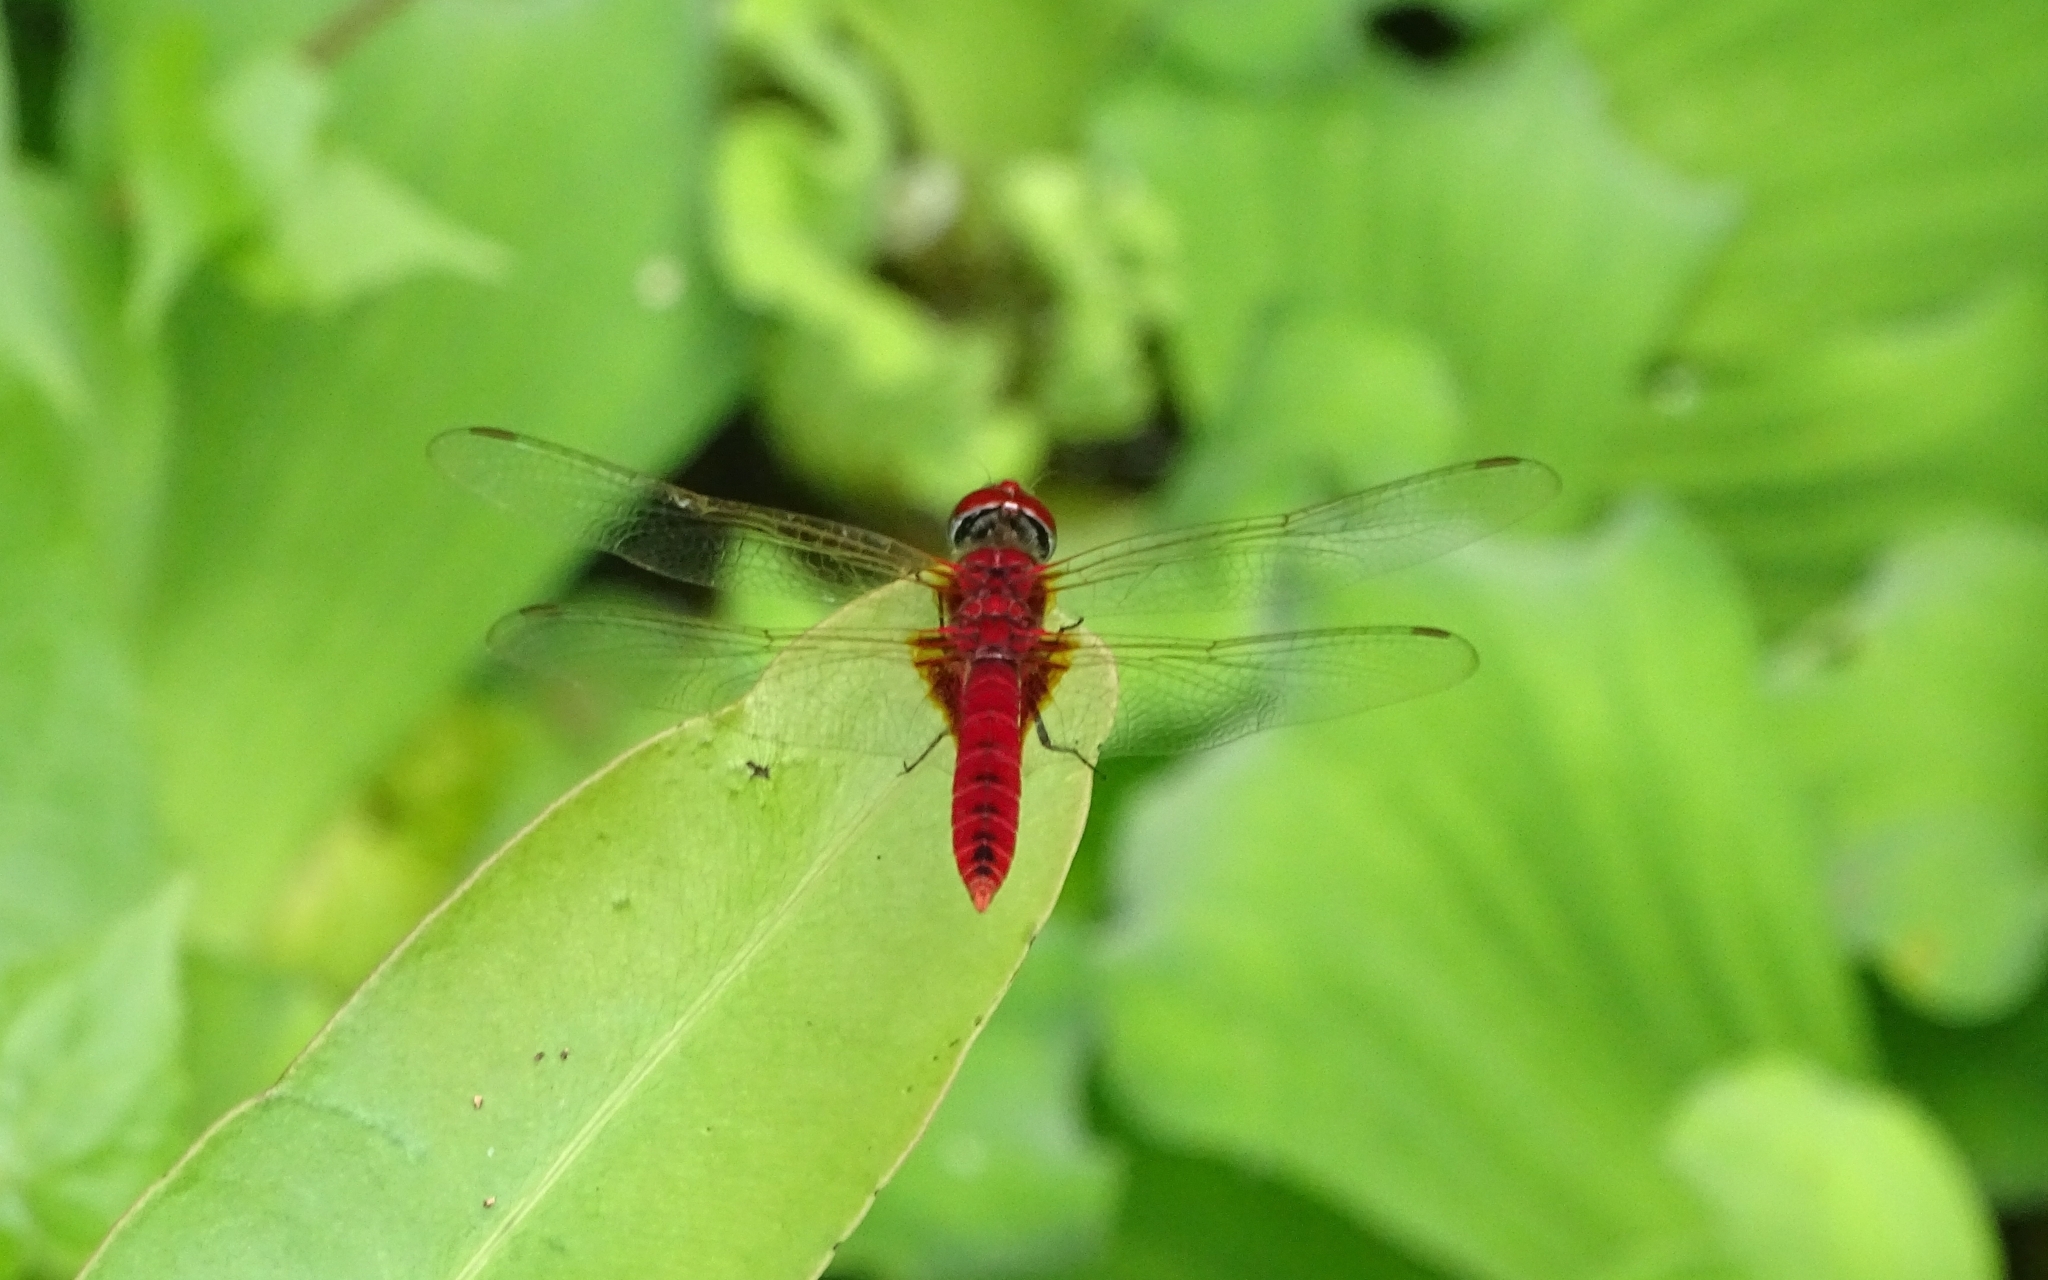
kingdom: Animalia
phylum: Arthropoda
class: Insecta
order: Odonata
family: Libellulidae
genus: Urothemis
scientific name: Urothemis signata
